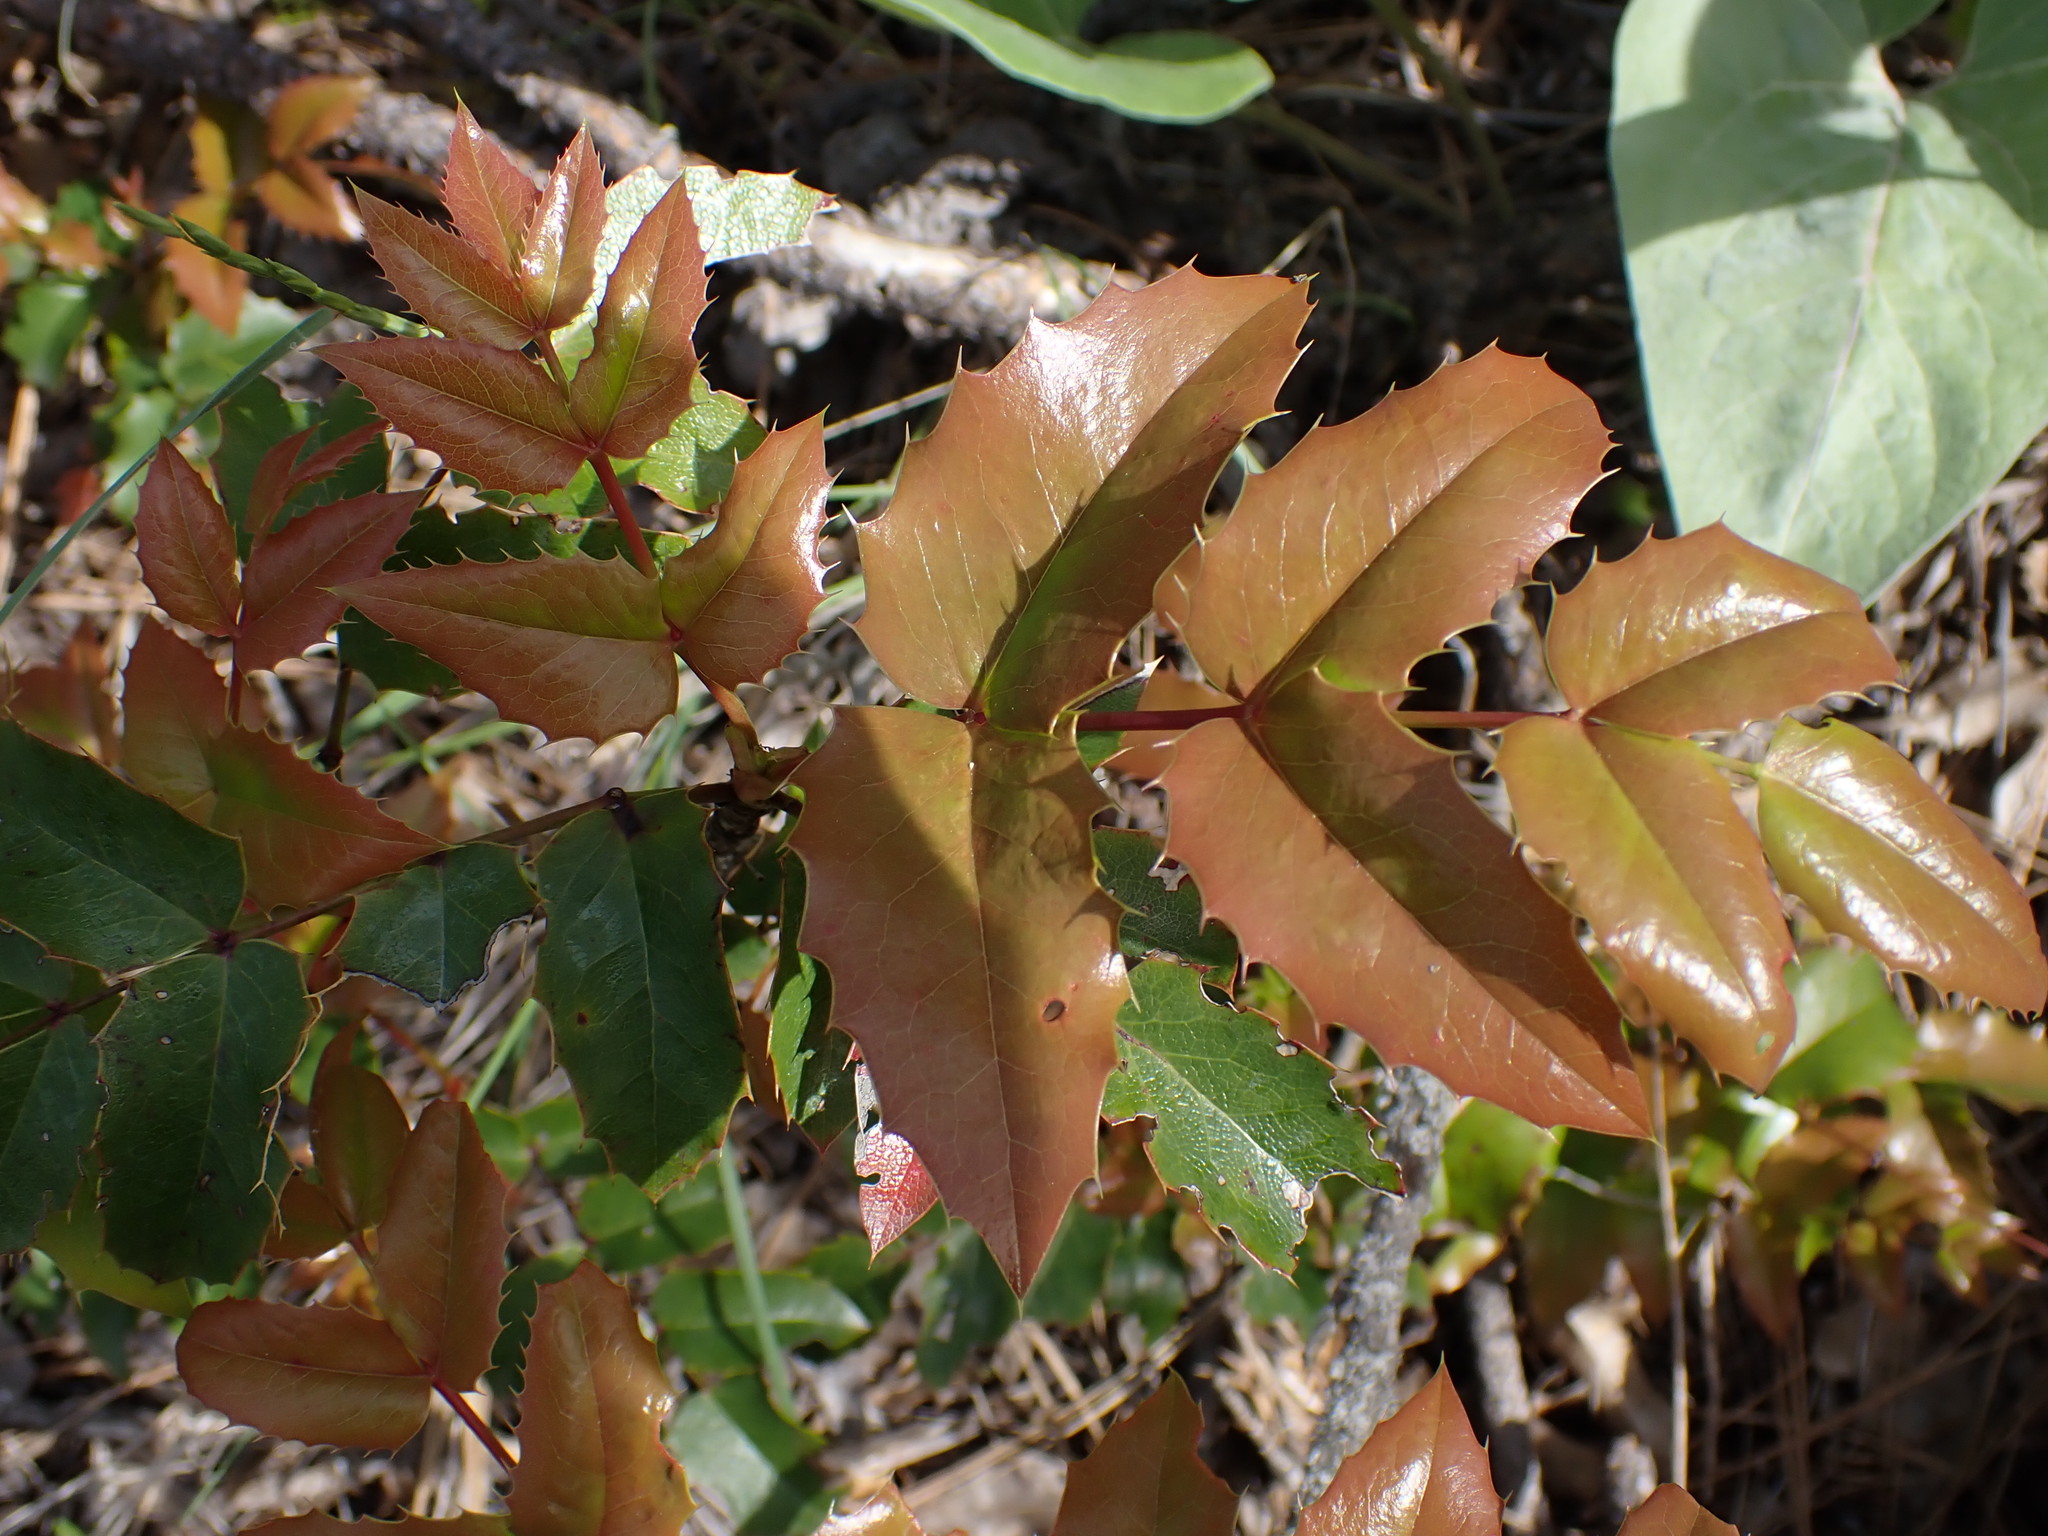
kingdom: Plantae
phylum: Tracheophyta
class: Magnoliopsida
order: Ranunculales
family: Berberidaceae
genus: Mahonia
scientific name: Mahonia aquifolium
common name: Oregon-grape
